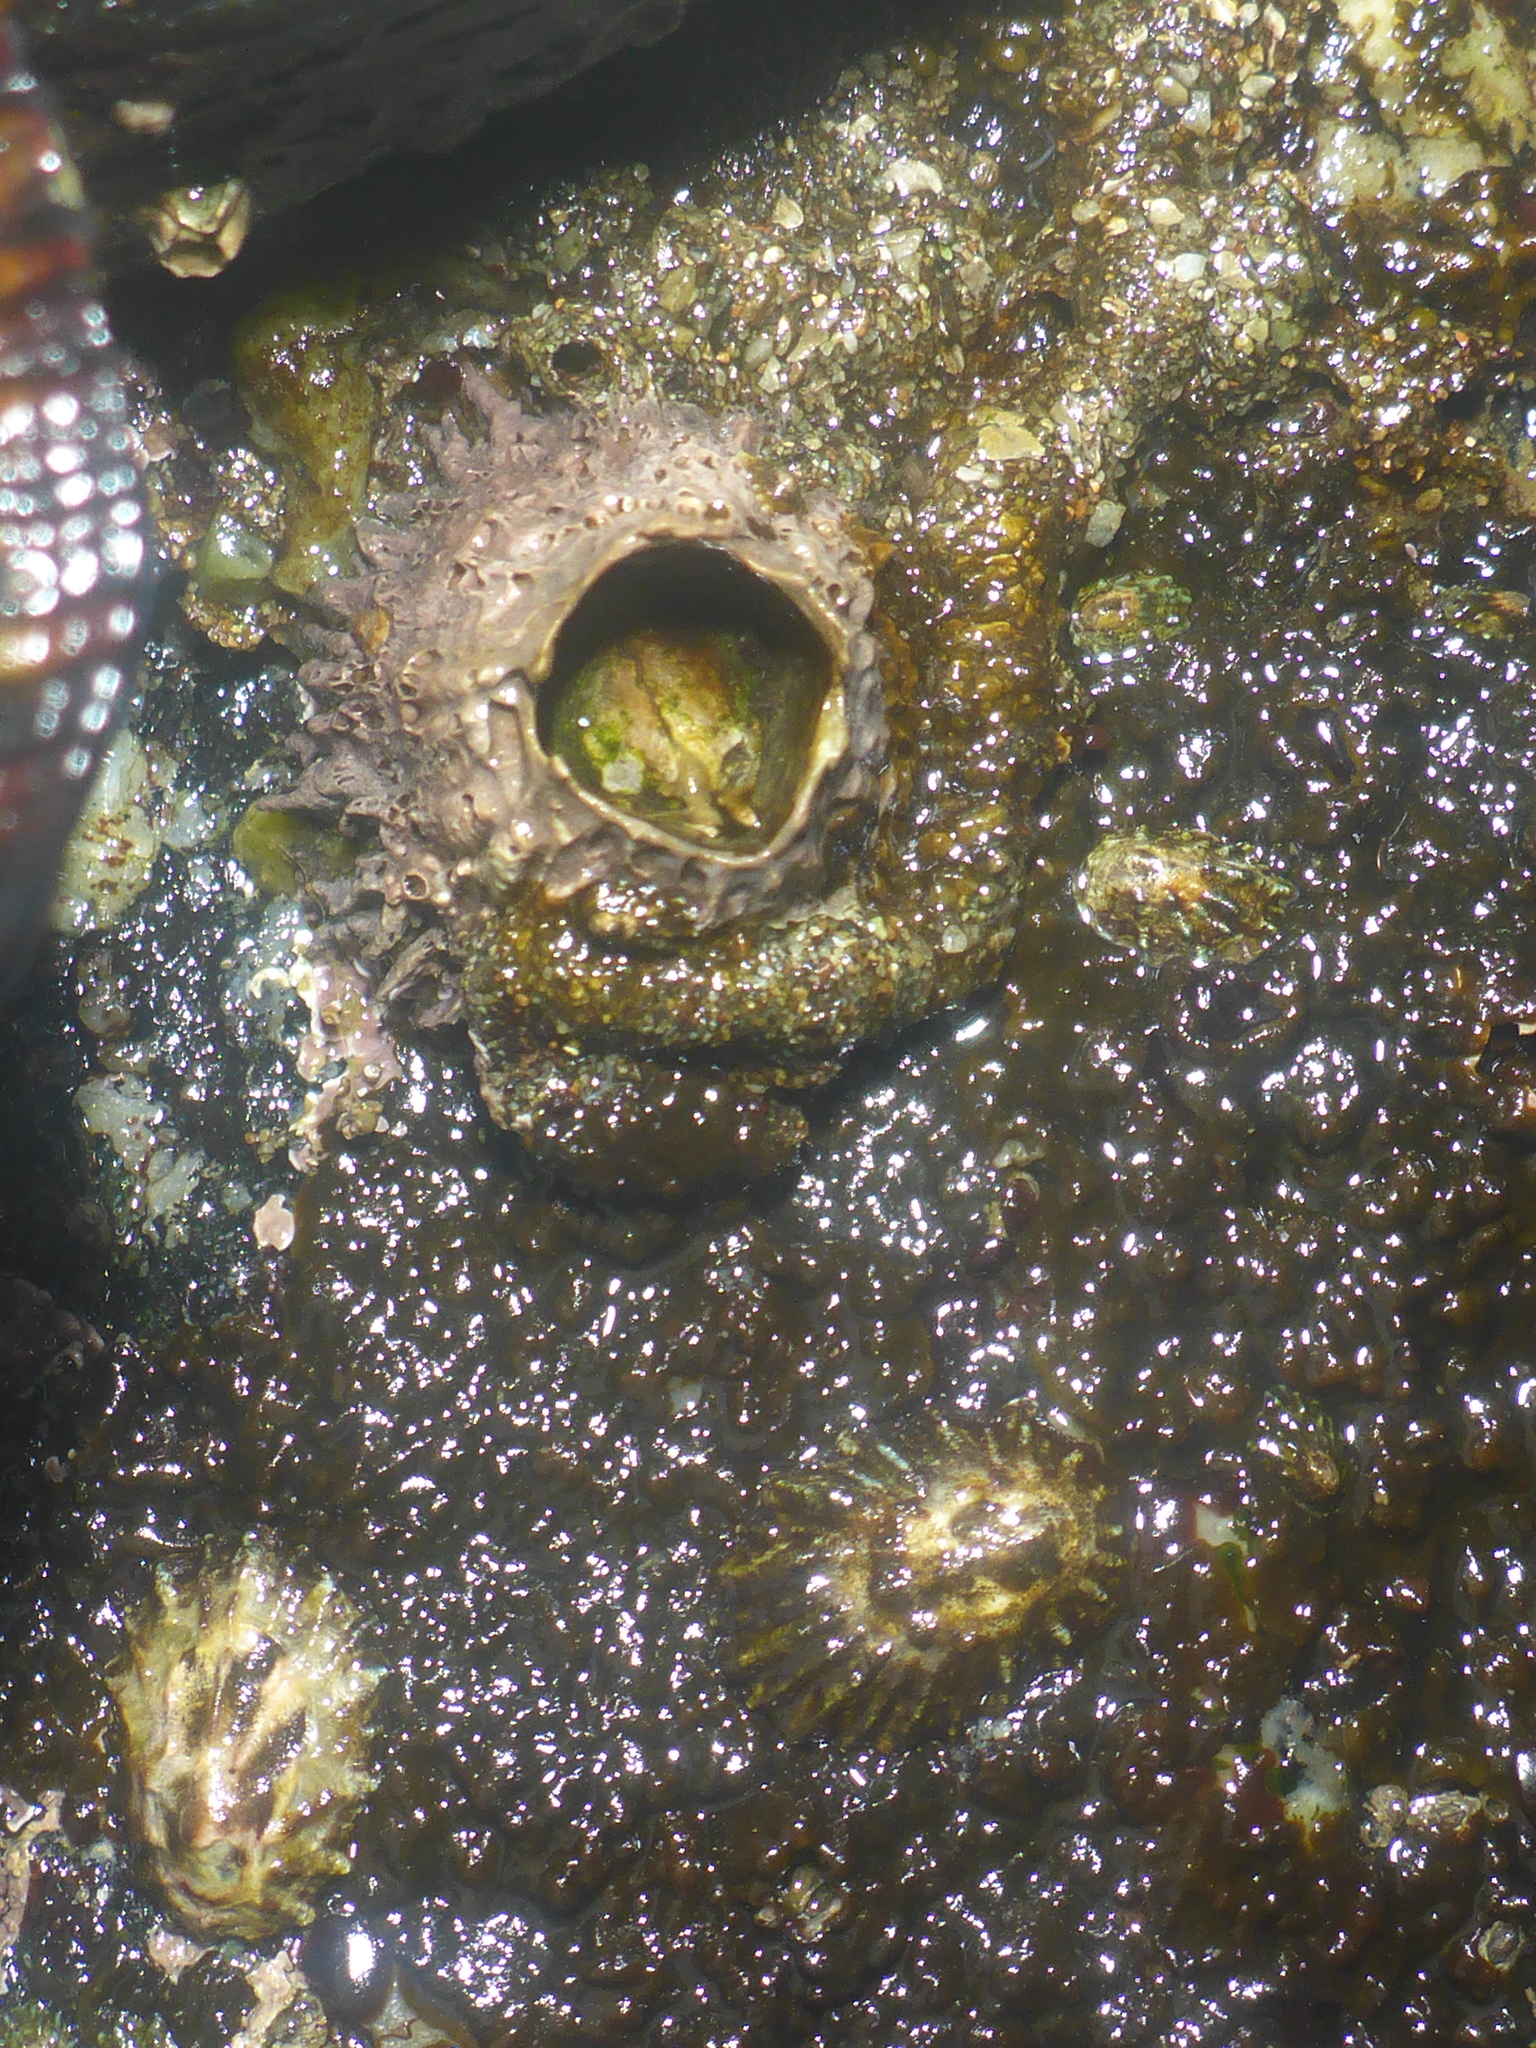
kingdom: Animalia
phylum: Arthropoda
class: Maxillopoda
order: Sessilia
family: Archaeobalanidae
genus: Semibalanus
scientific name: Semibalanus cariosus
